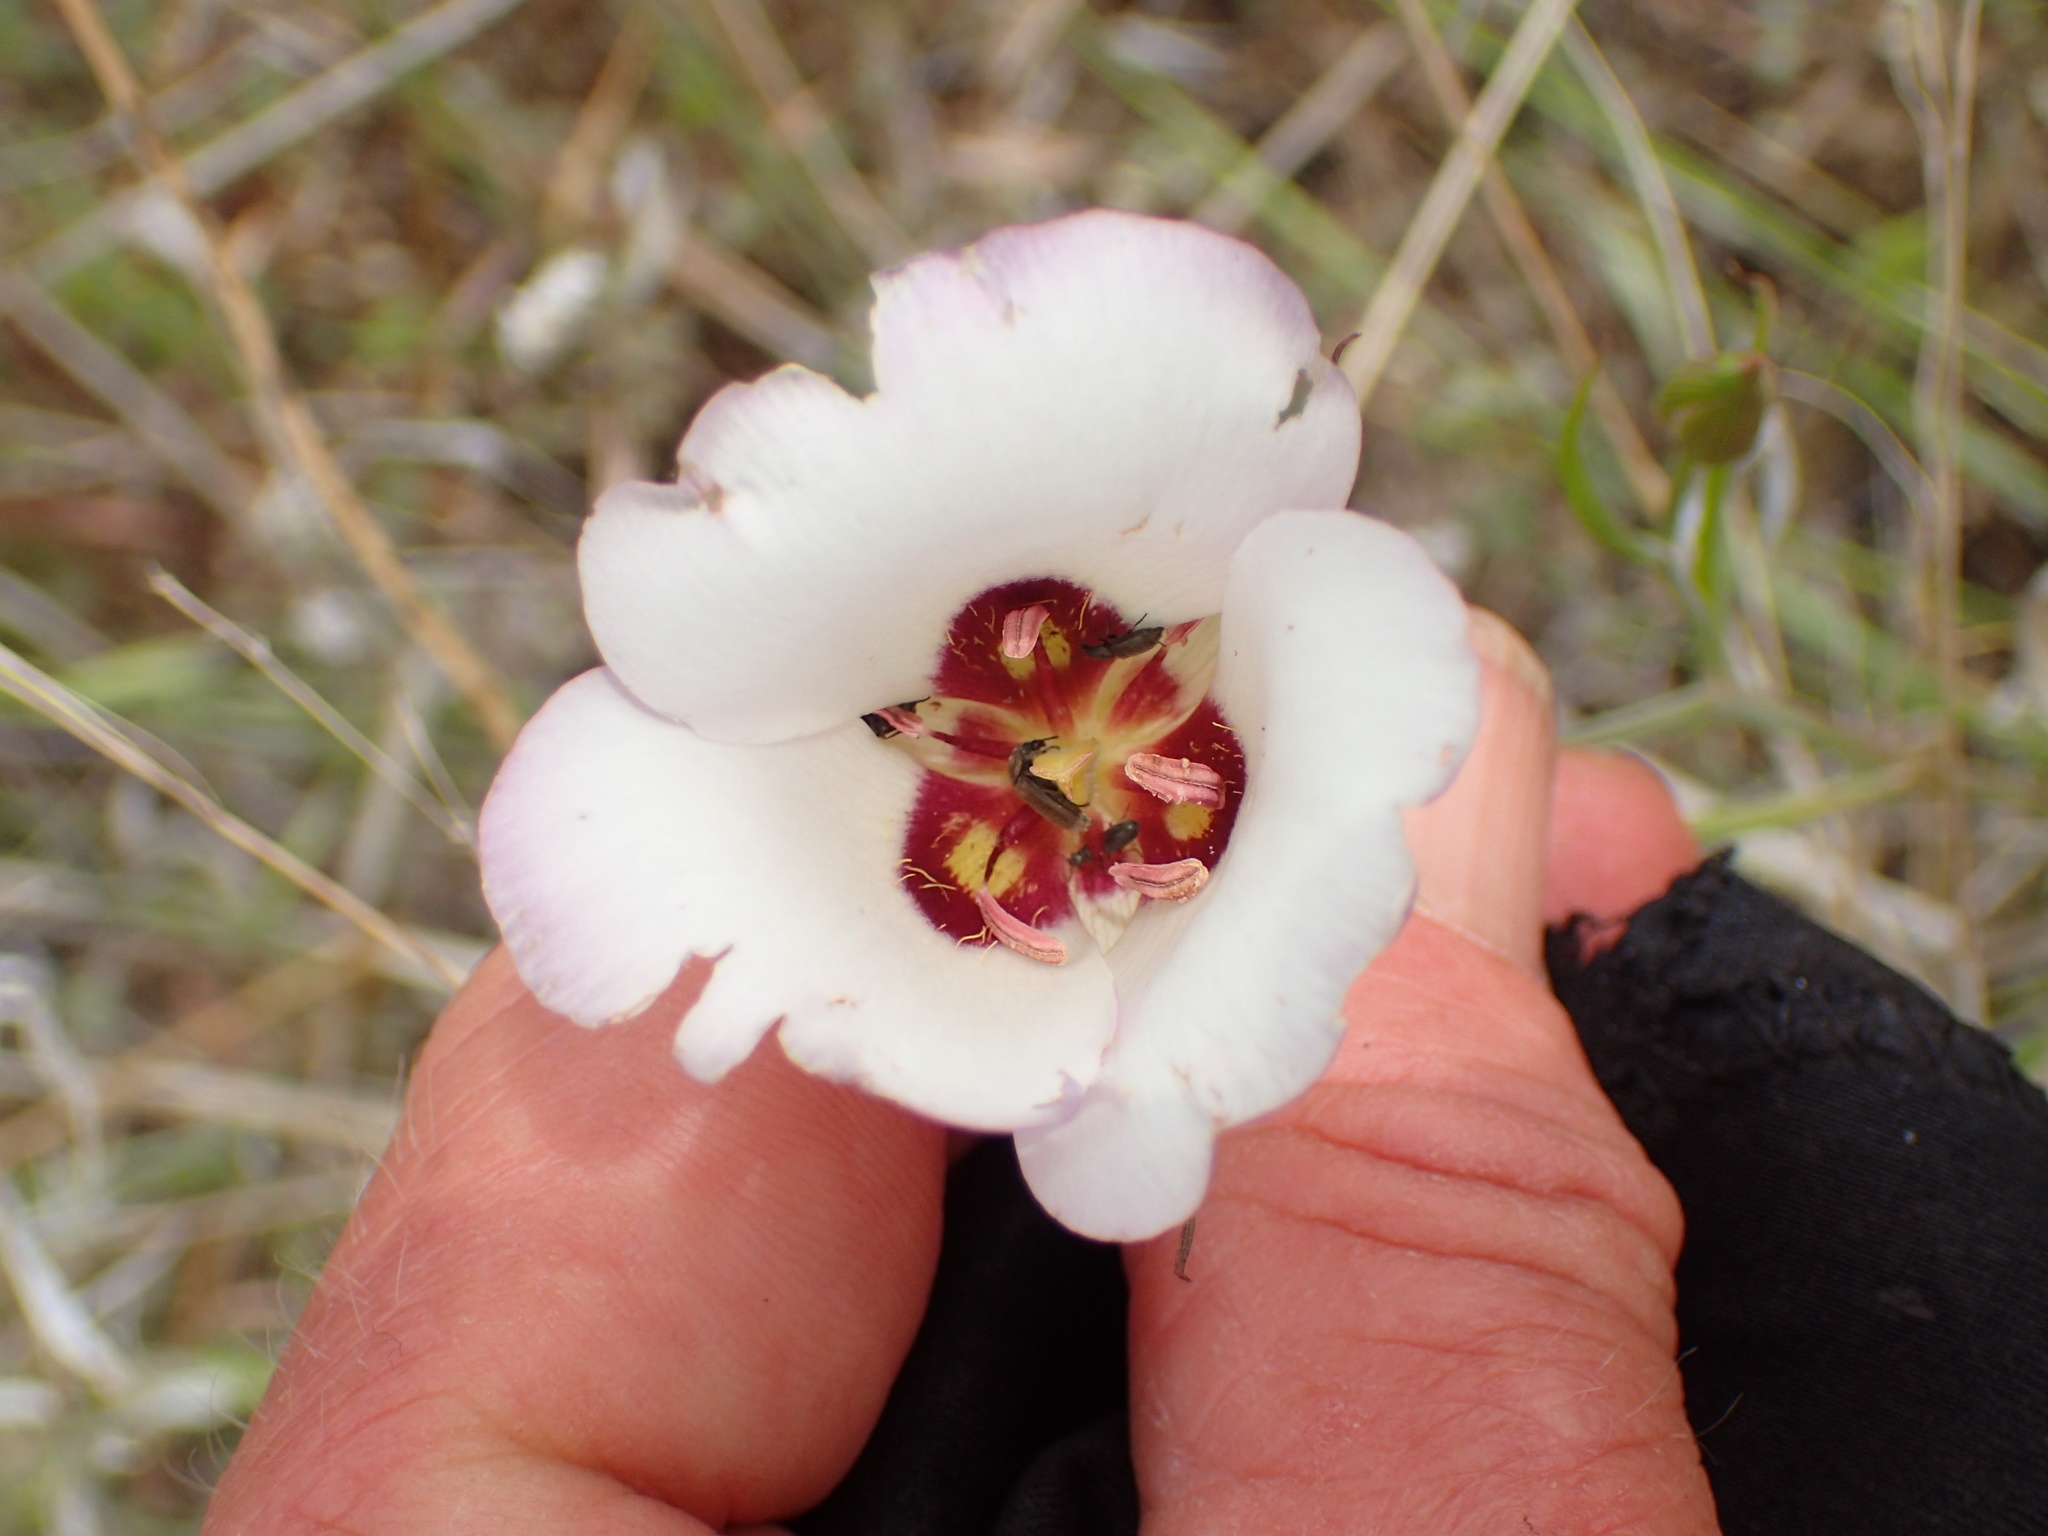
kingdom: Plantae
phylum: Tracheophyta
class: Liliopsida
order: Liliales
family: Liliaceae
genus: Calochortus
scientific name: Calochortus catalinae
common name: Catalina mariposa-lily
